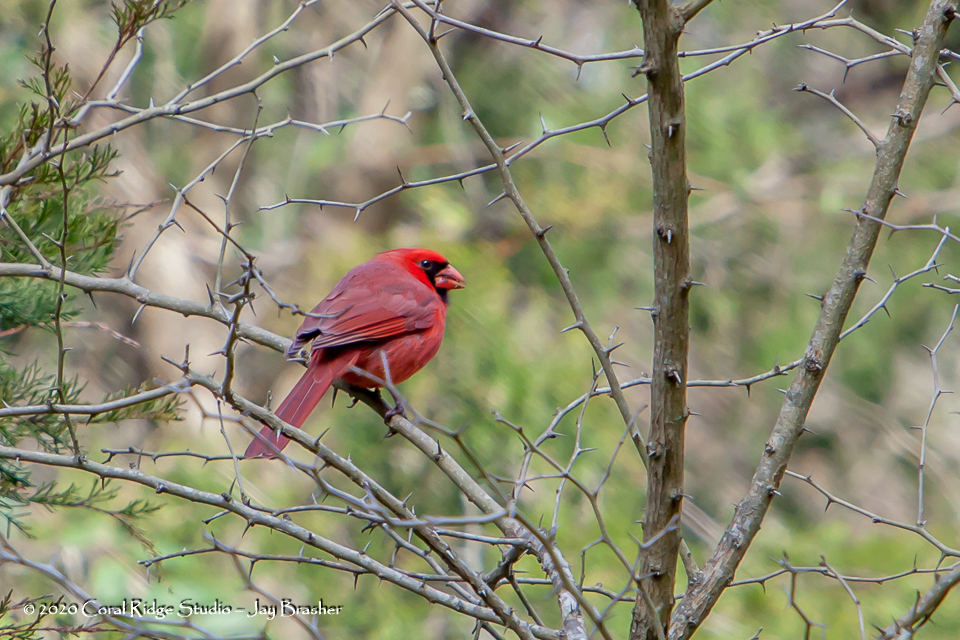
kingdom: Animalia
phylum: Chordata
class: Aves
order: Passeriformes
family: Cardinalidae
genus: Cardinalis
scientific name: Cardinalis cardinalis
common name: Northern cardinal
